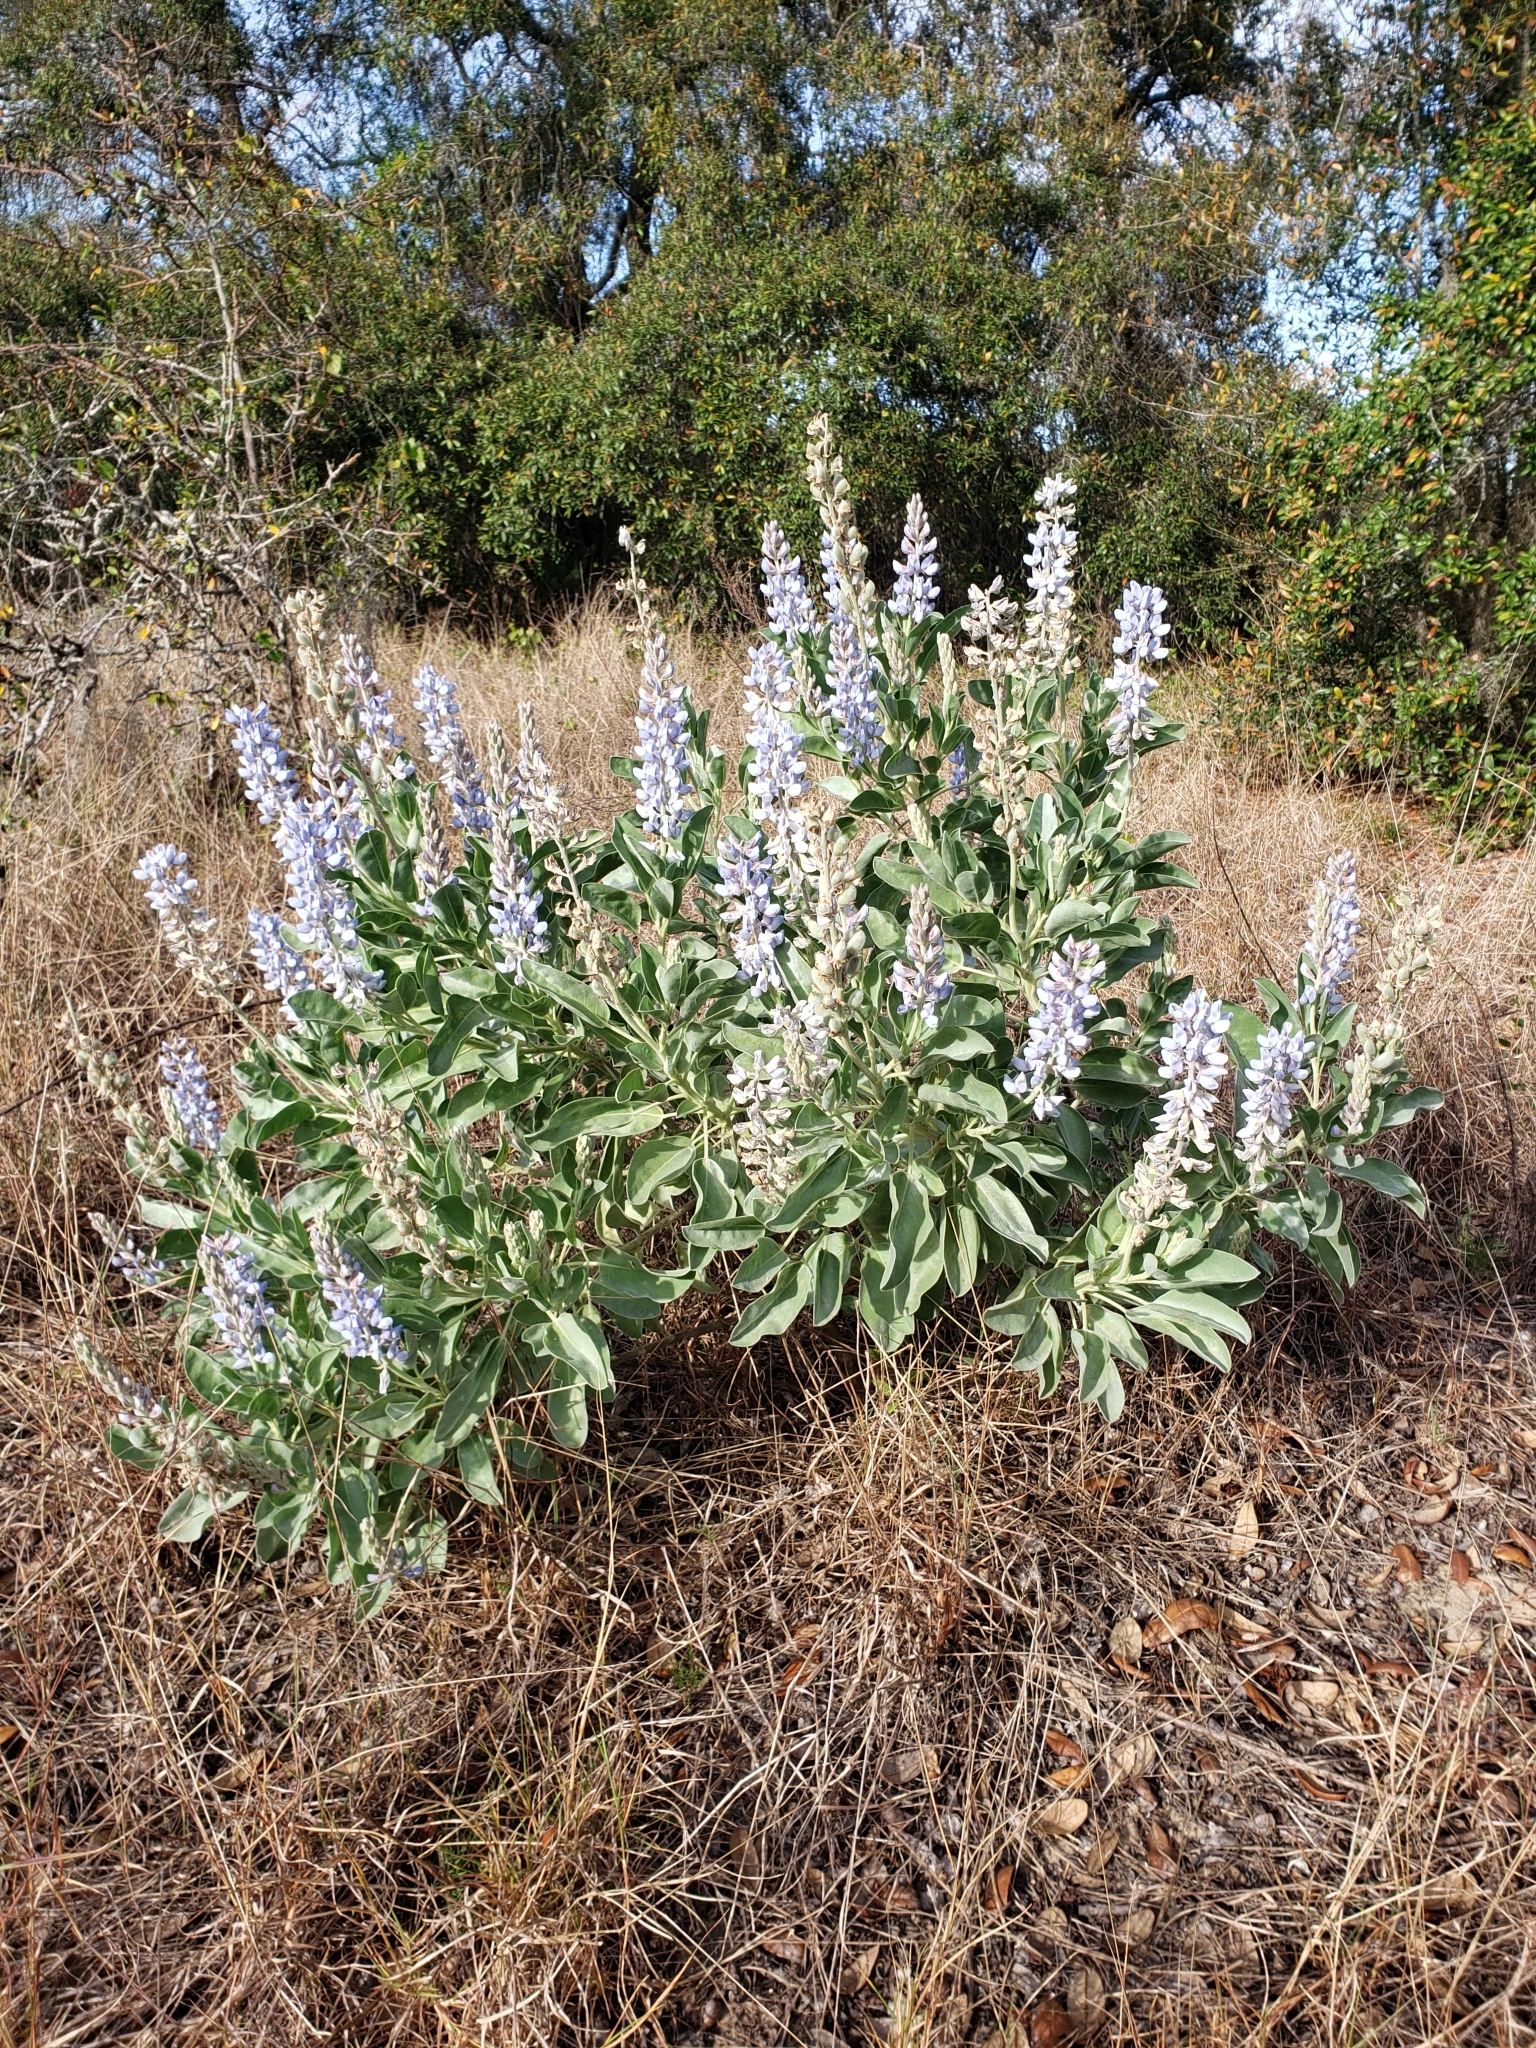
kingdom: Plantae
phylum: Tracheophyta
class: Magnoliopsida
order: Fabales
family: Fabaceae
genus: Lupinus
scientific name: Lupinus cumulicola
